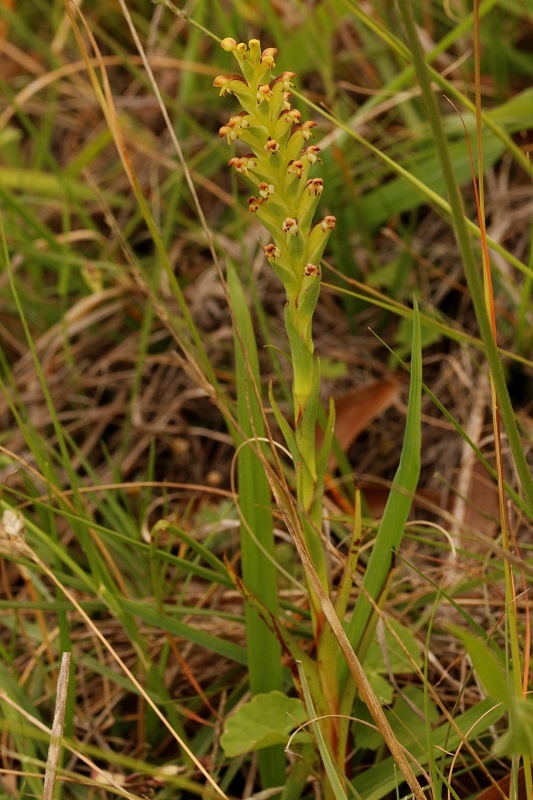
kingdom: Plantae
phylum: Tracheophyta
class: Liliopsida
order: Asparagales
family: Orchidaceae
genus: Disa
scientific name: Disa bracteata
